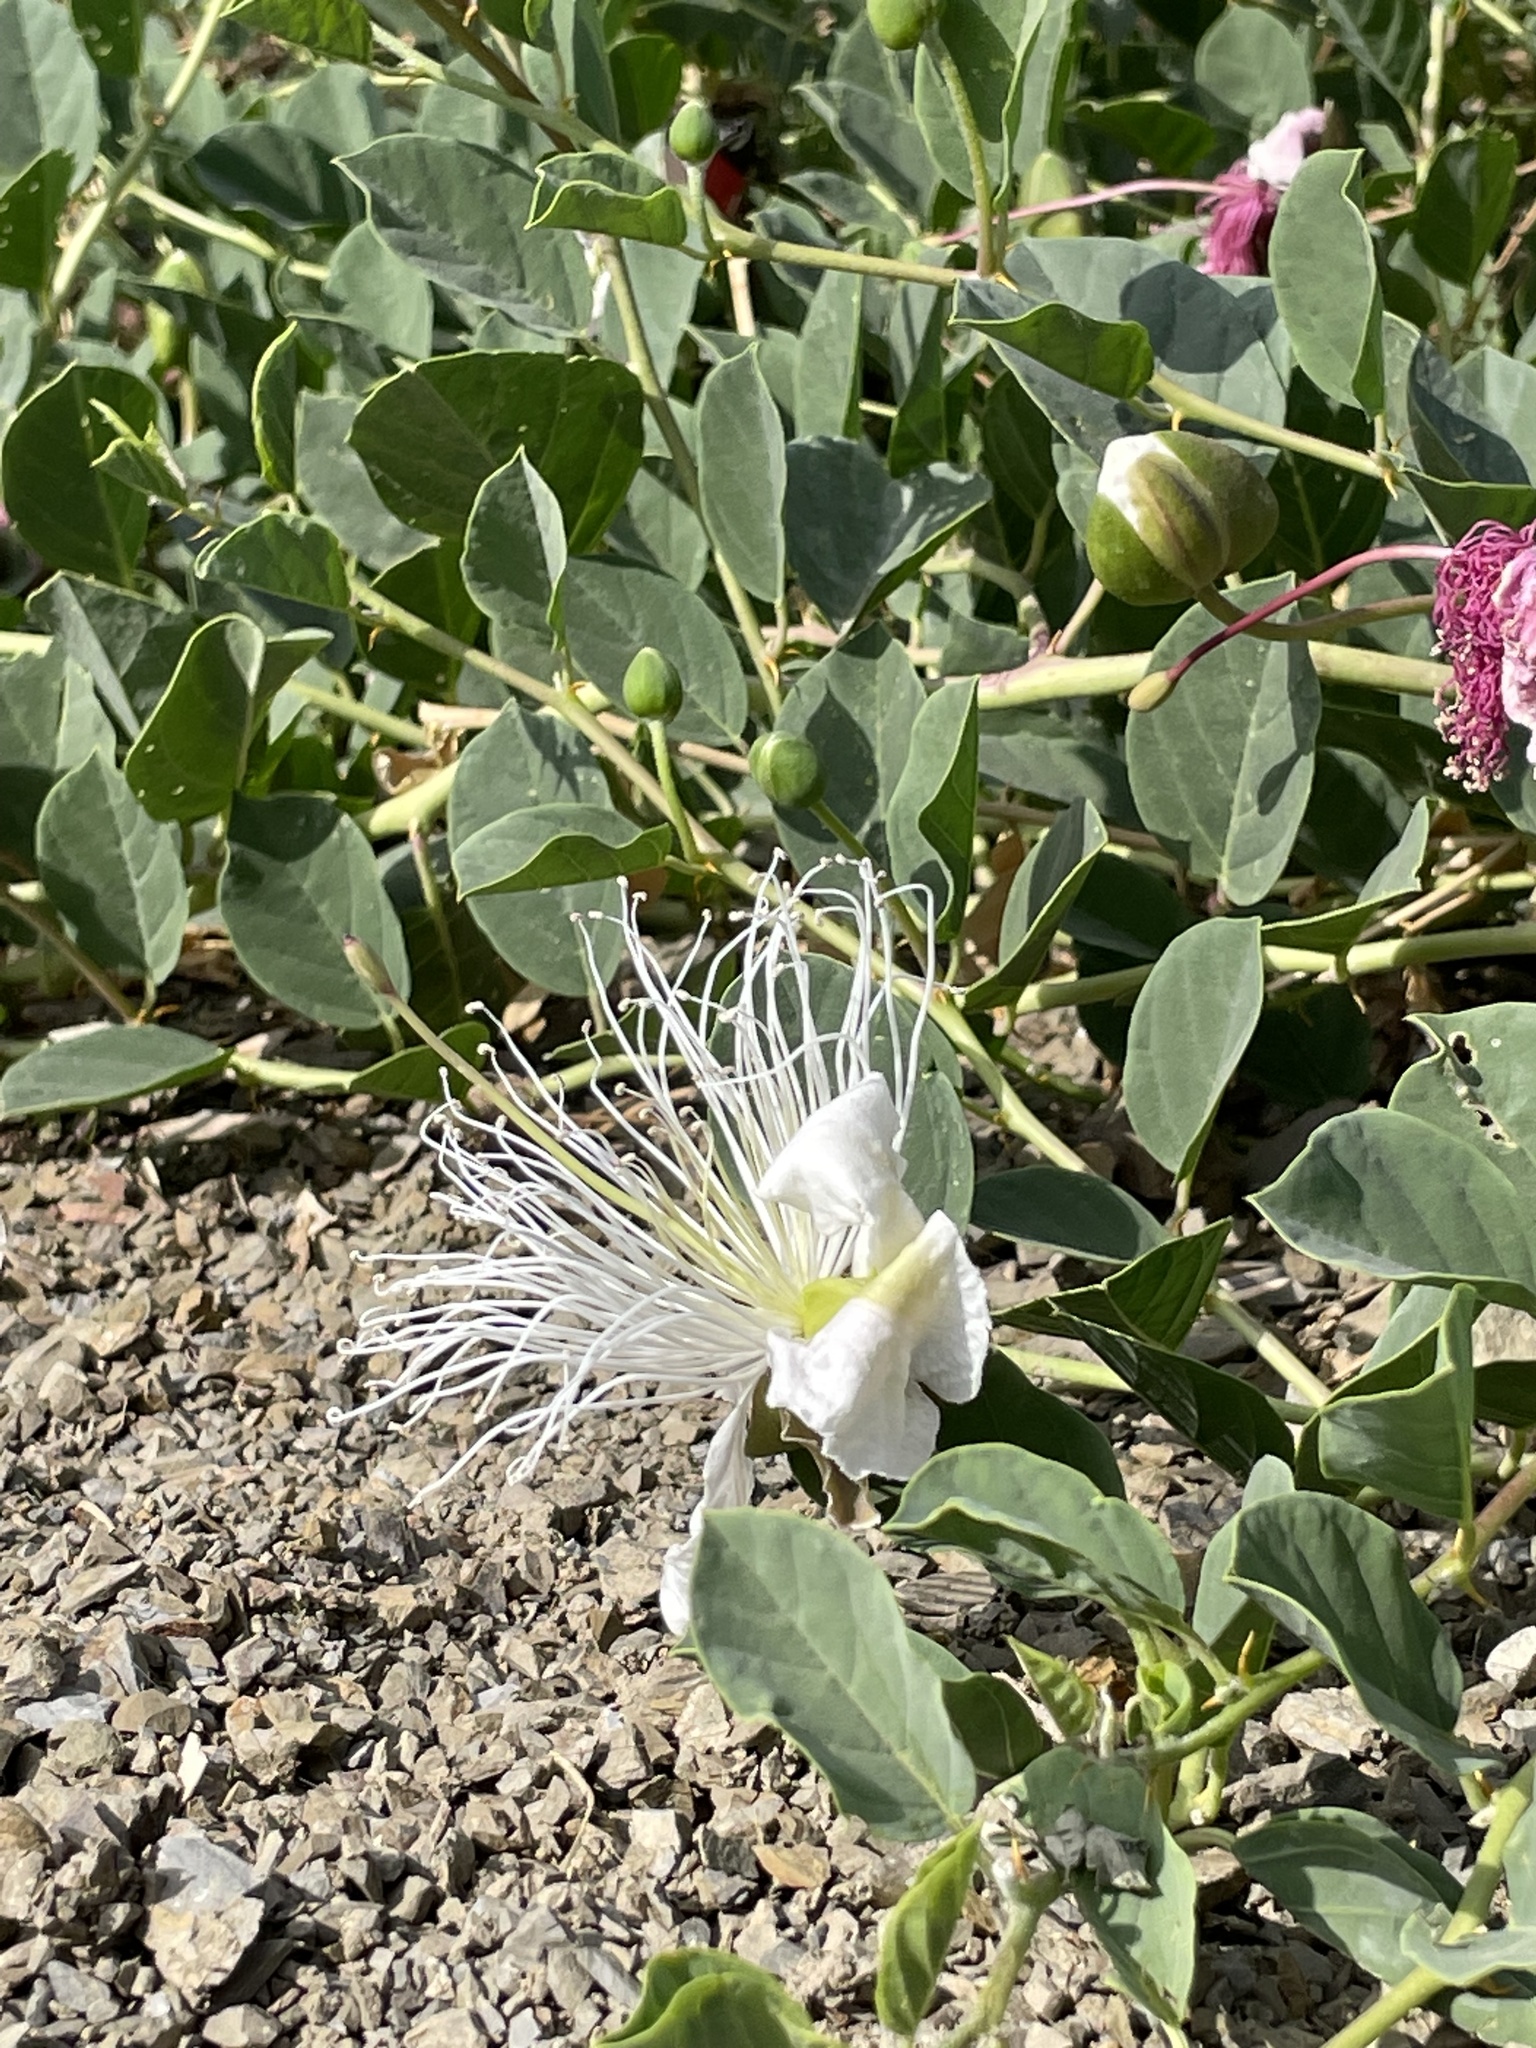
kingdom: Plantae
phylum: Tracheophyta
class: Magnoliopsida
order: Brassicales
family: Capparaceae
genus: Capparis
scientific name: Capparis spinosa
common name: Caper
